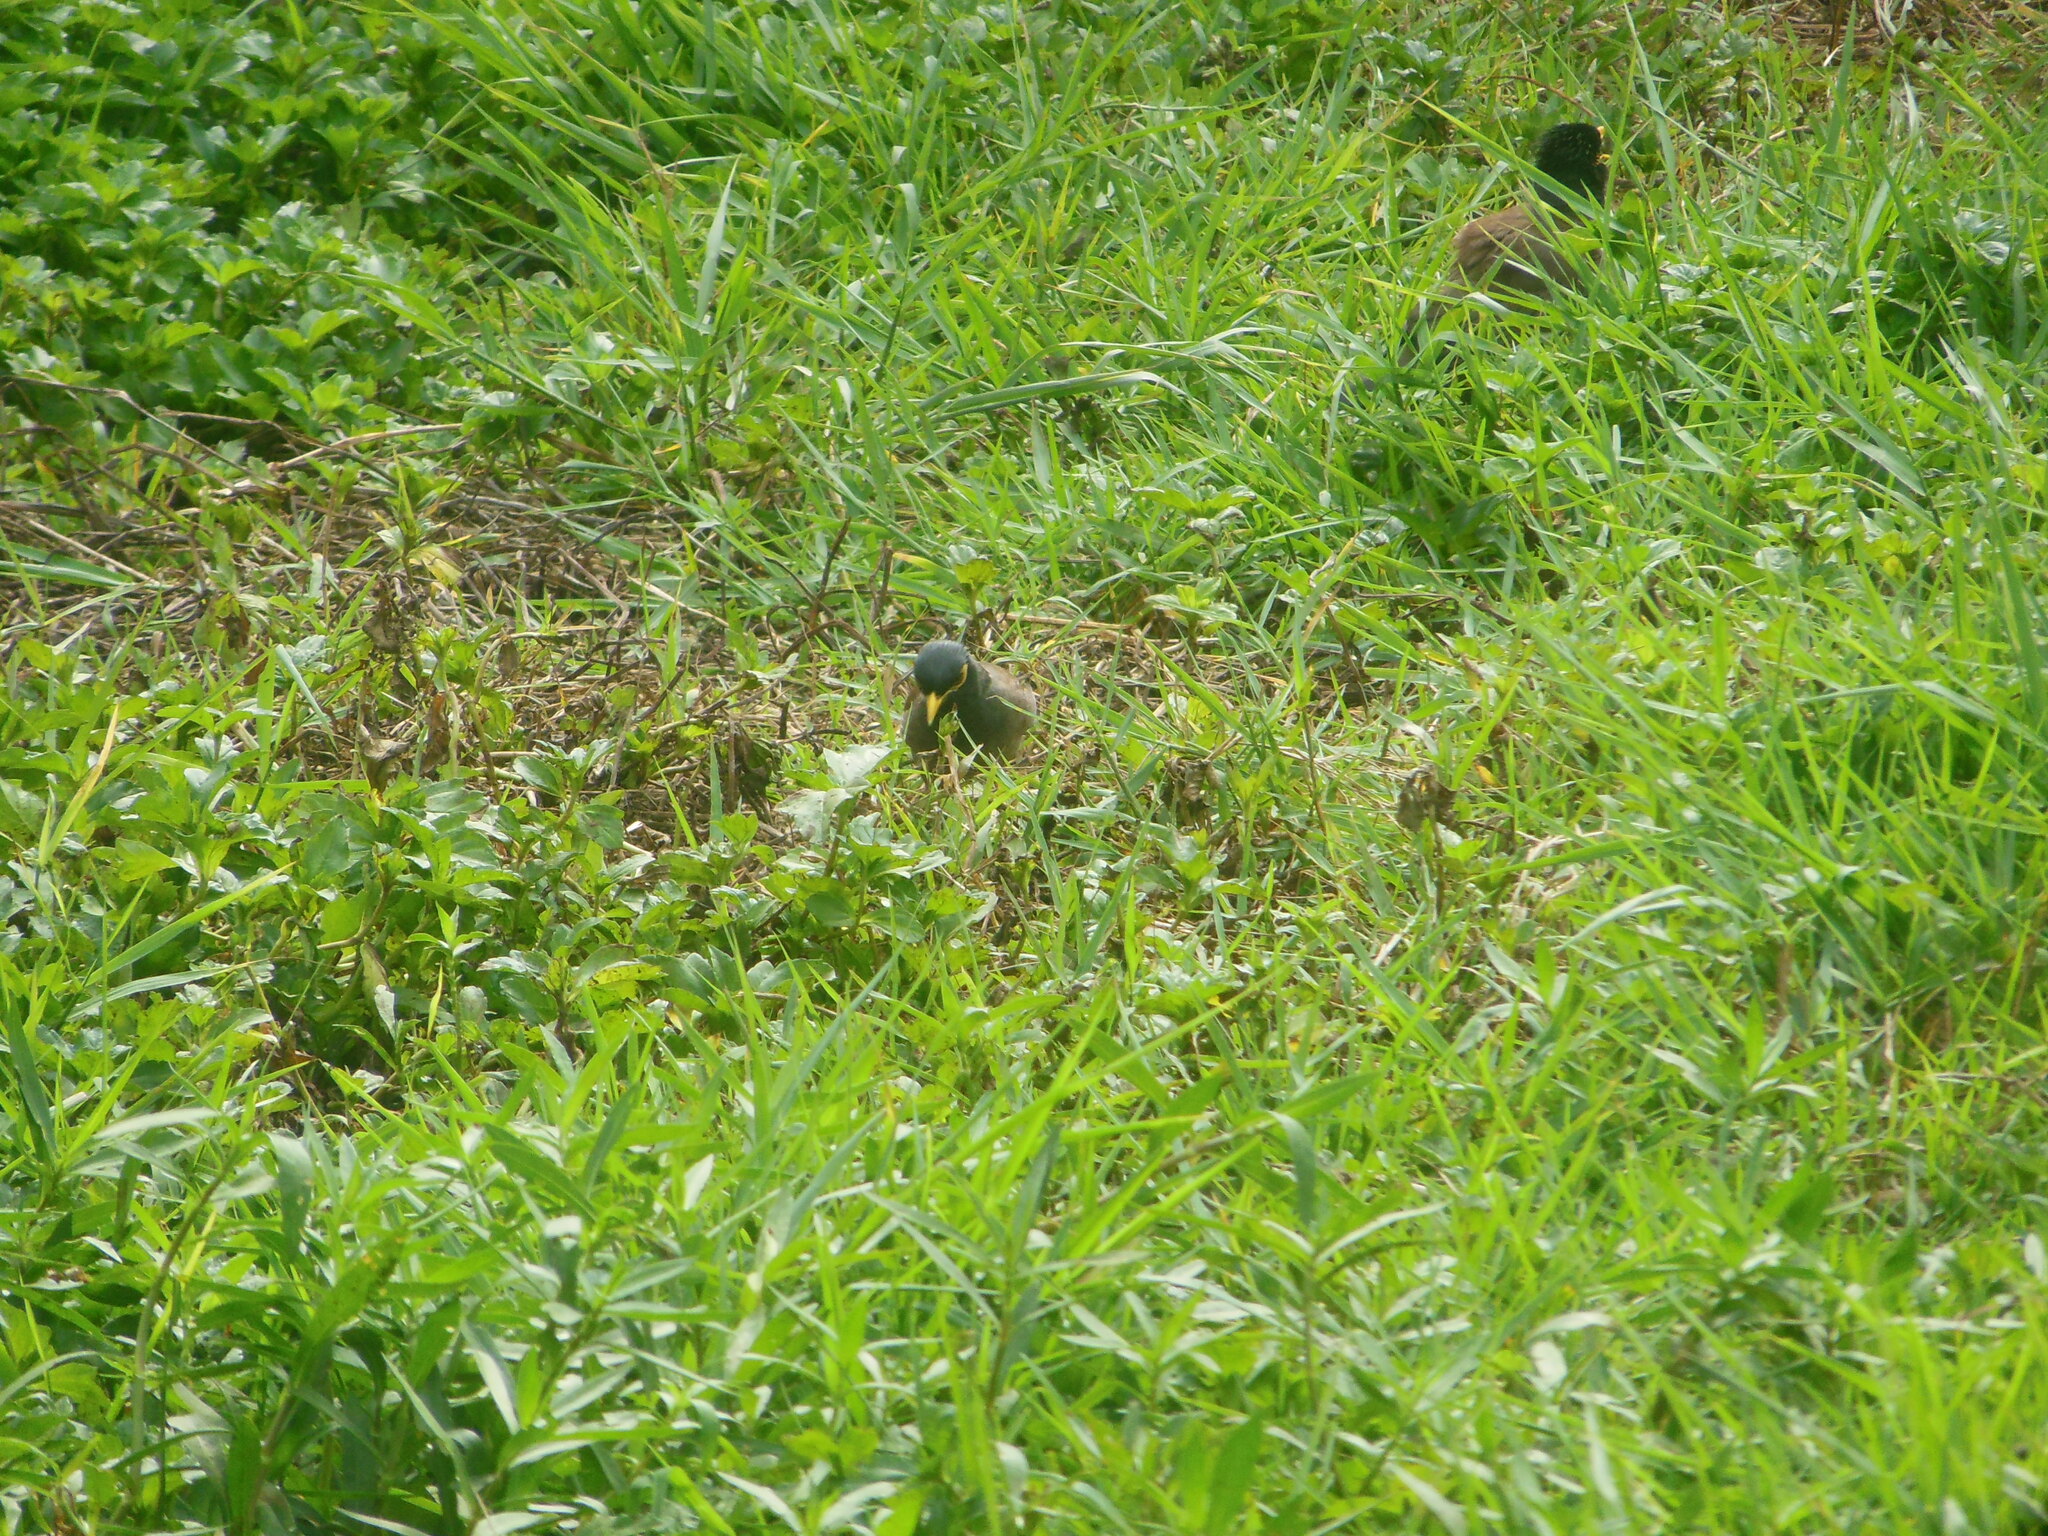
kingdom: Animalia
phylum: Chordata
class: Aves
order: Passeriformes
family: Sturnidae
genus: Acridotheres
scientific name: Acridotheres tristis
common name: Common myna
